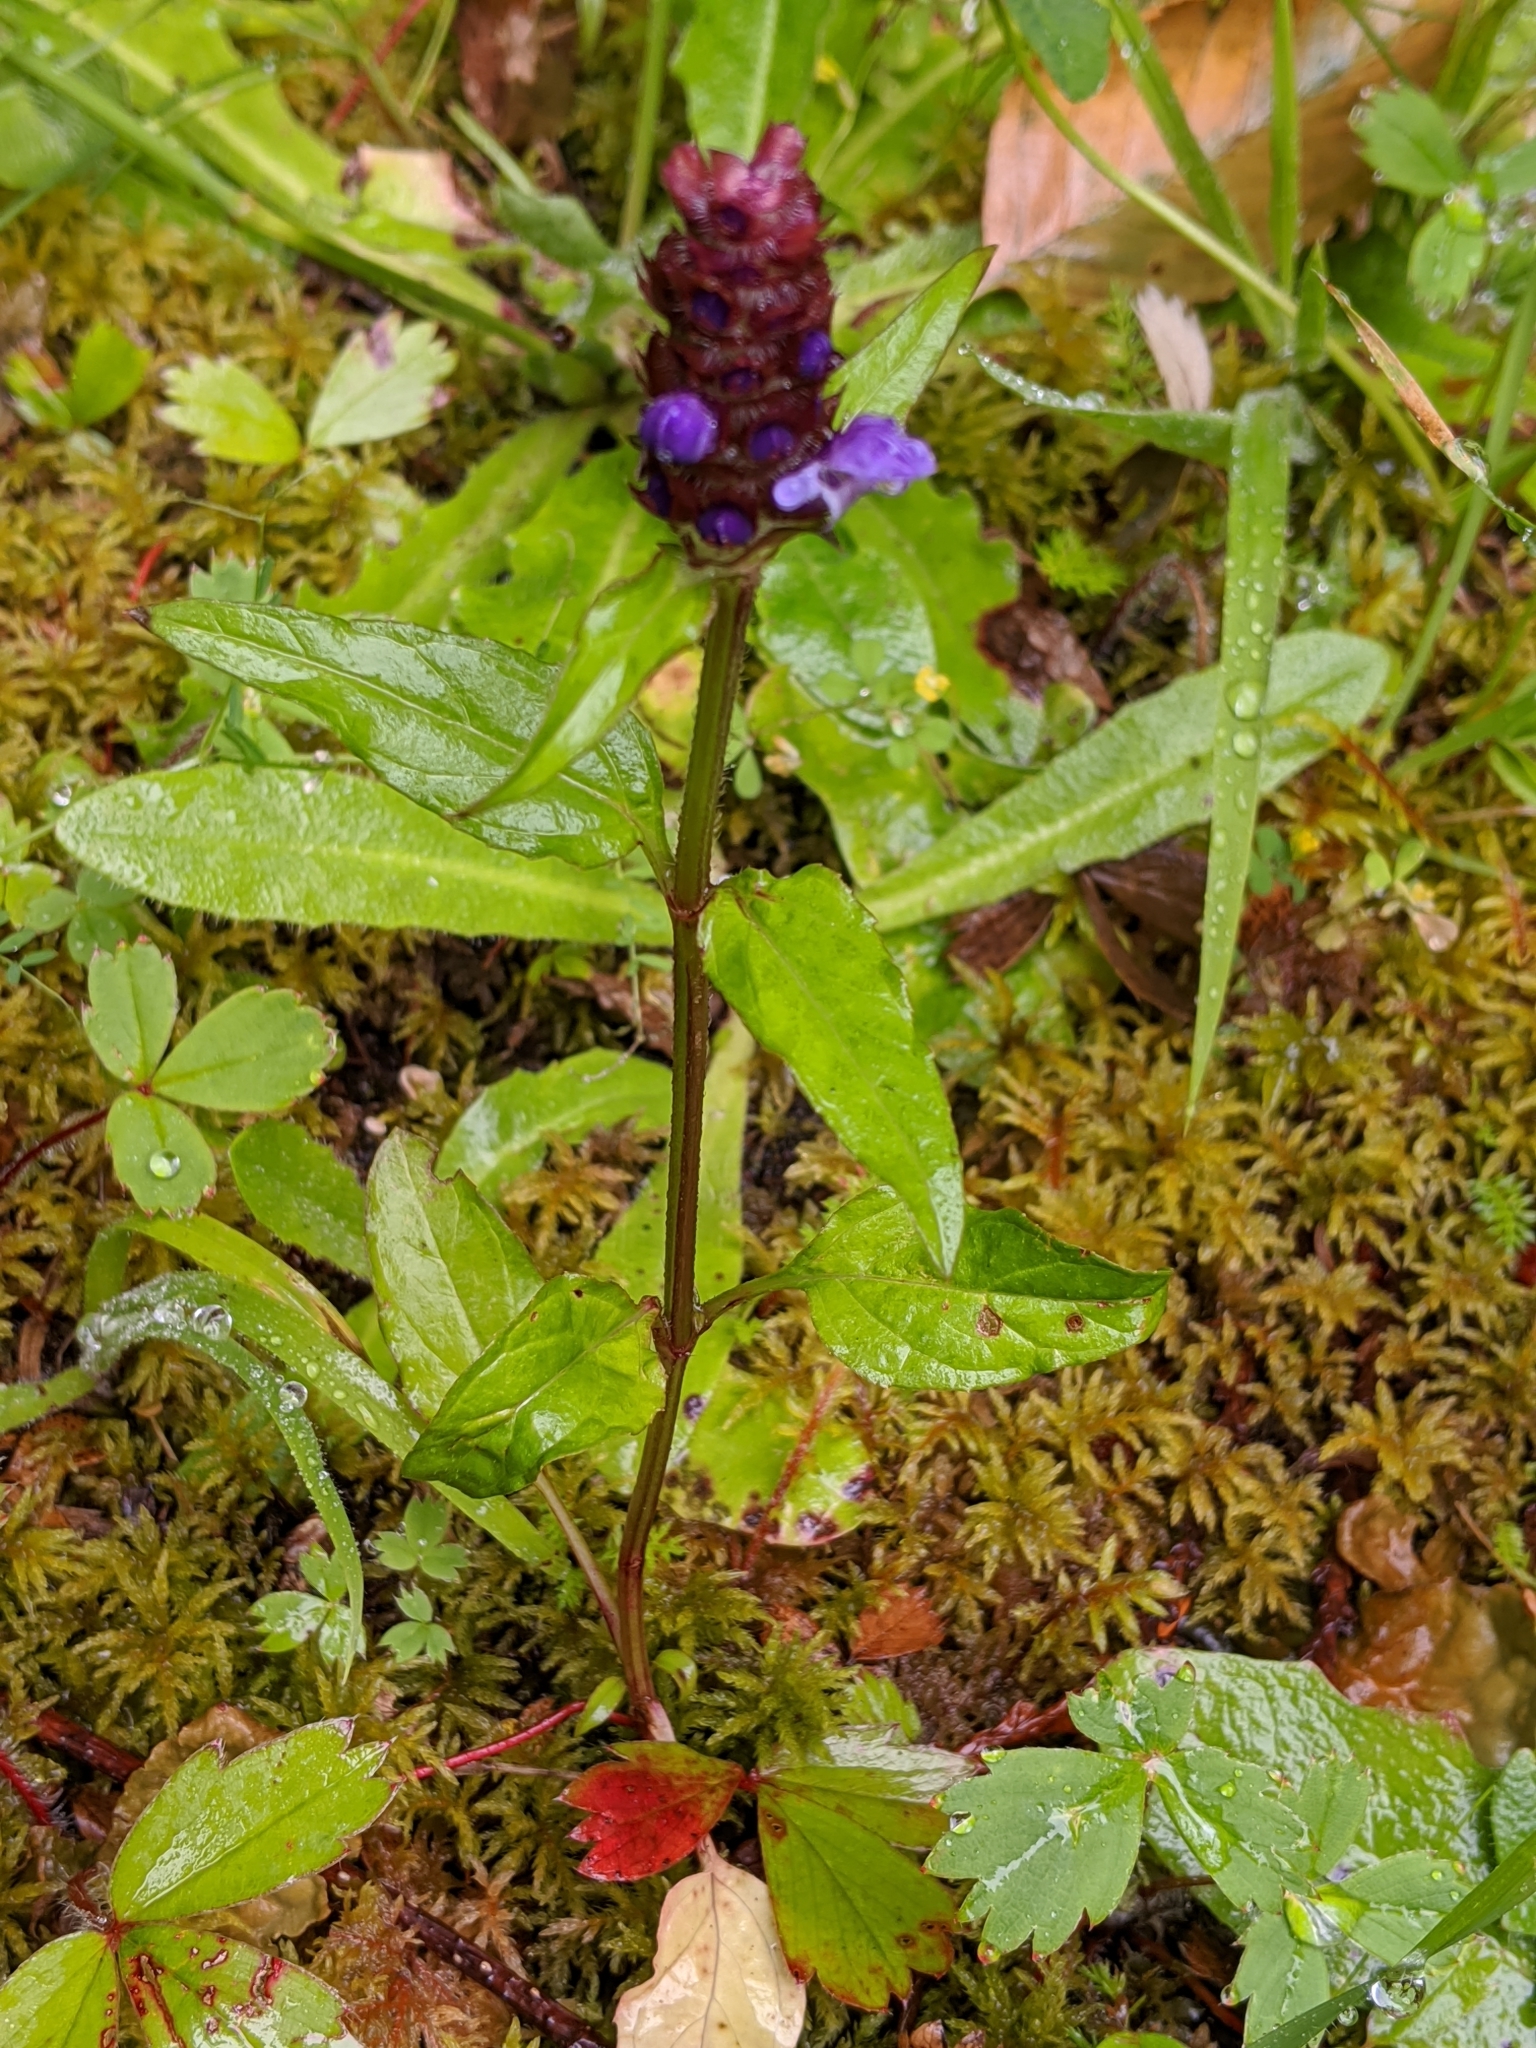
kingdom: Plantae
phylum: Tracheophyta
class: Magnoliopsida
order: Lamiales
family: Lamiaceae
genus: Prunella
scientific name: Prunella vulgaris
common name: Heal-all
